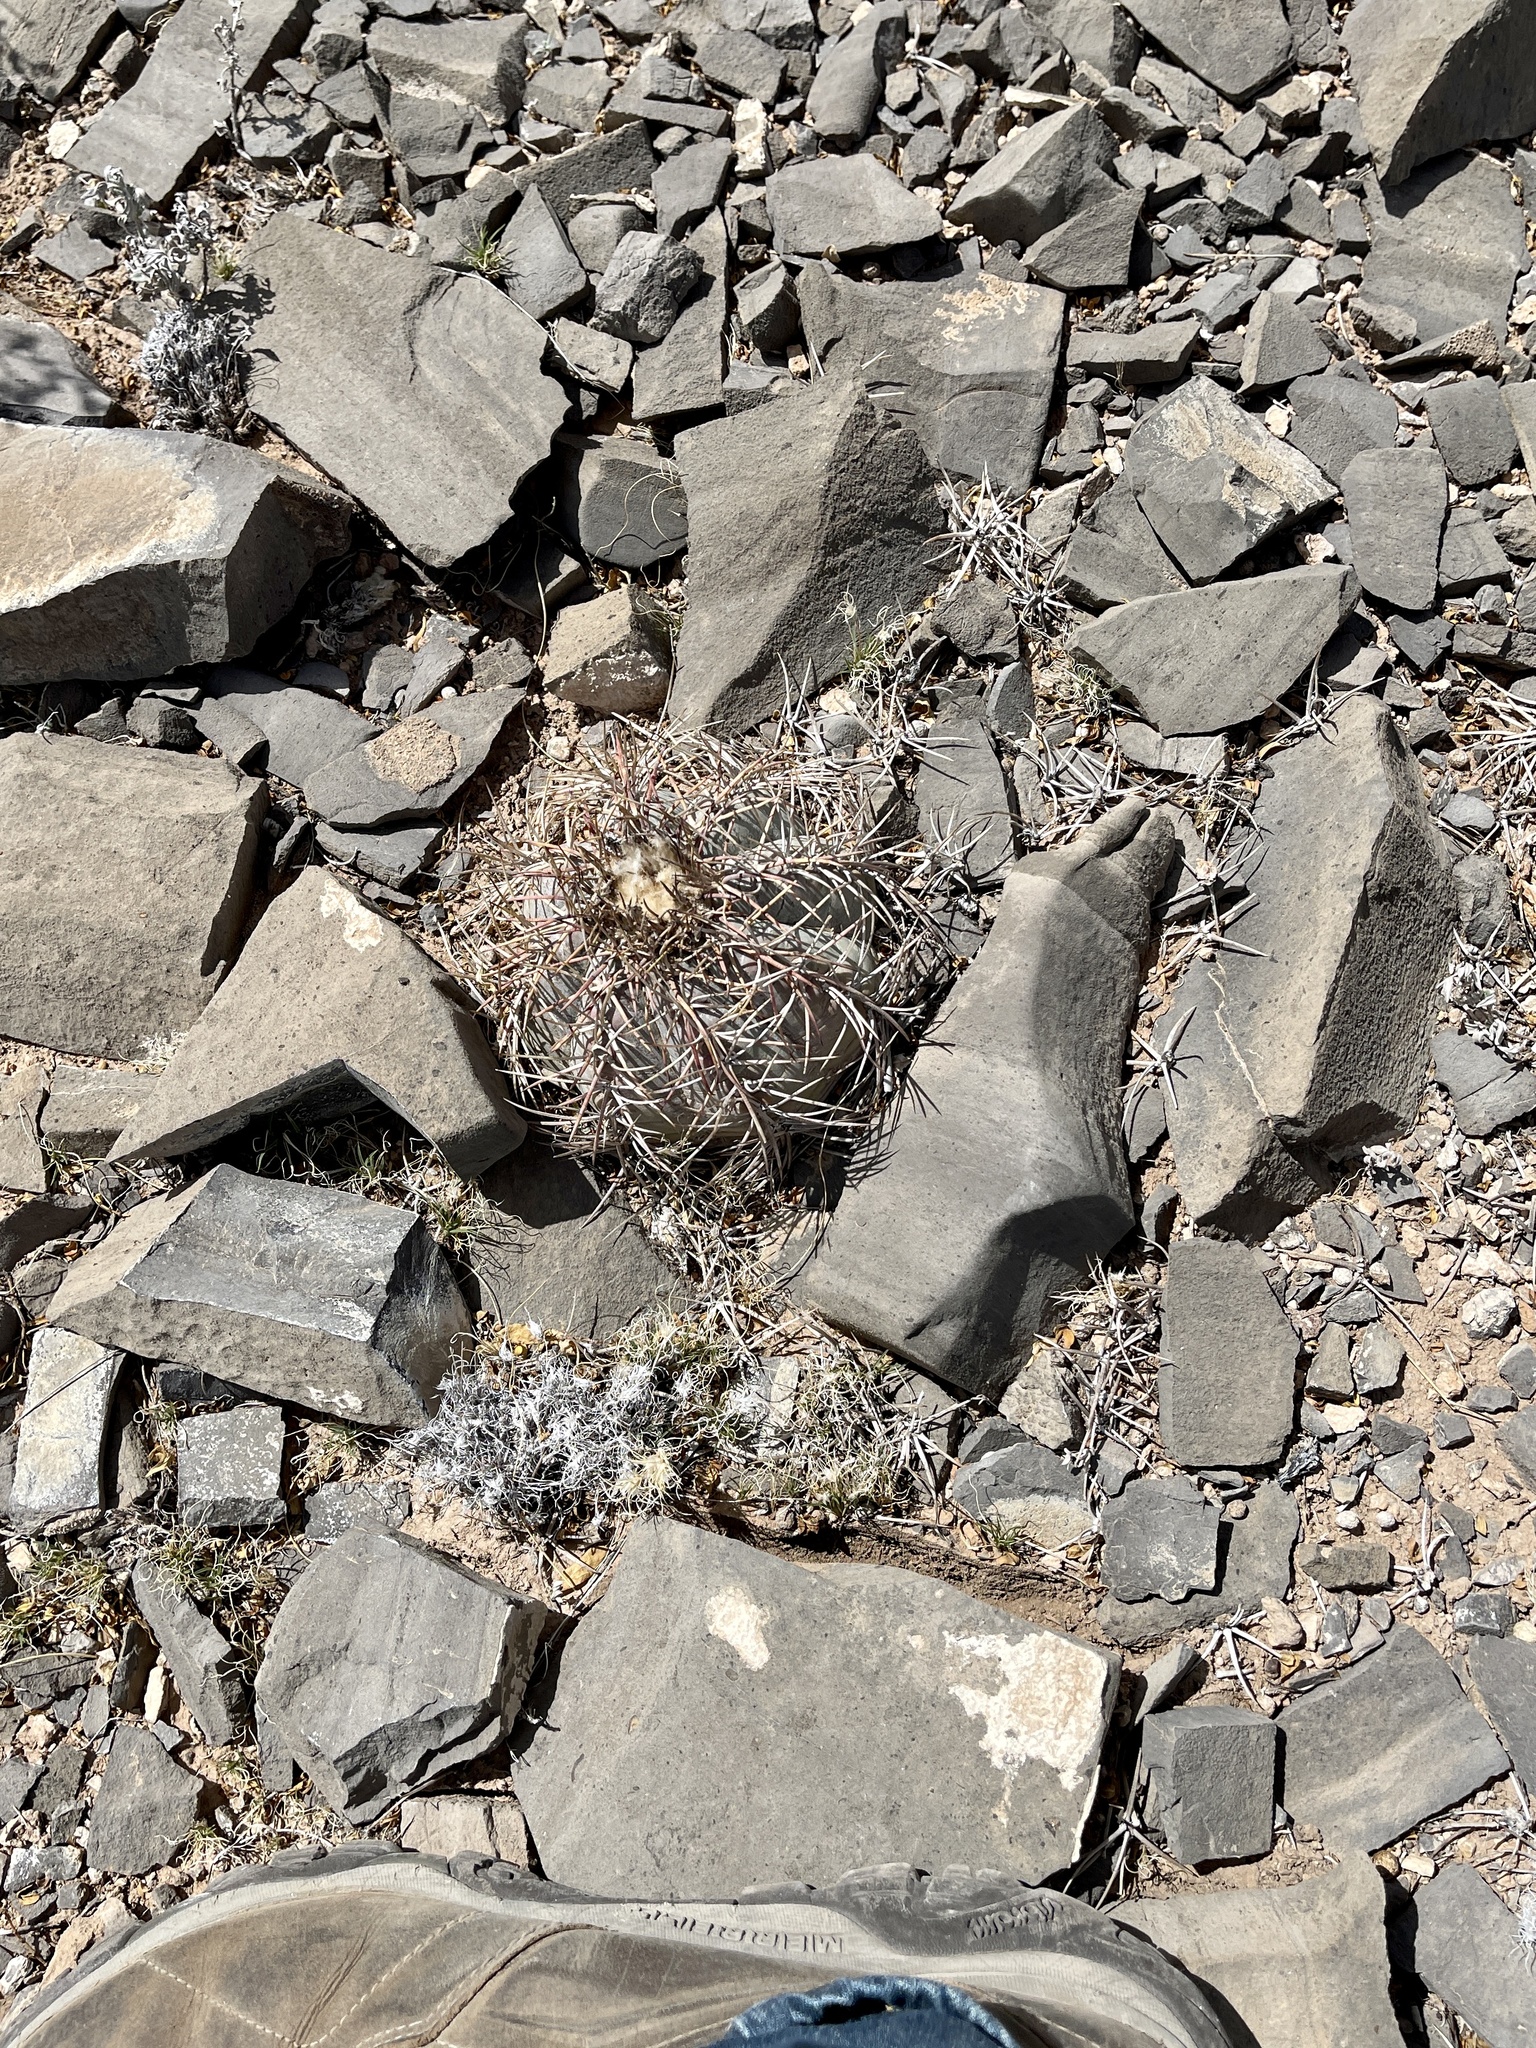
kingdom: Plantae
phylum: Tracheophyta
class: Magnoliopsida
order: Caryophyllales
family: Cactaceae
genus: Echinocactus
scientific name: Echinocactus horizonthalonius
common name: Devilshead
